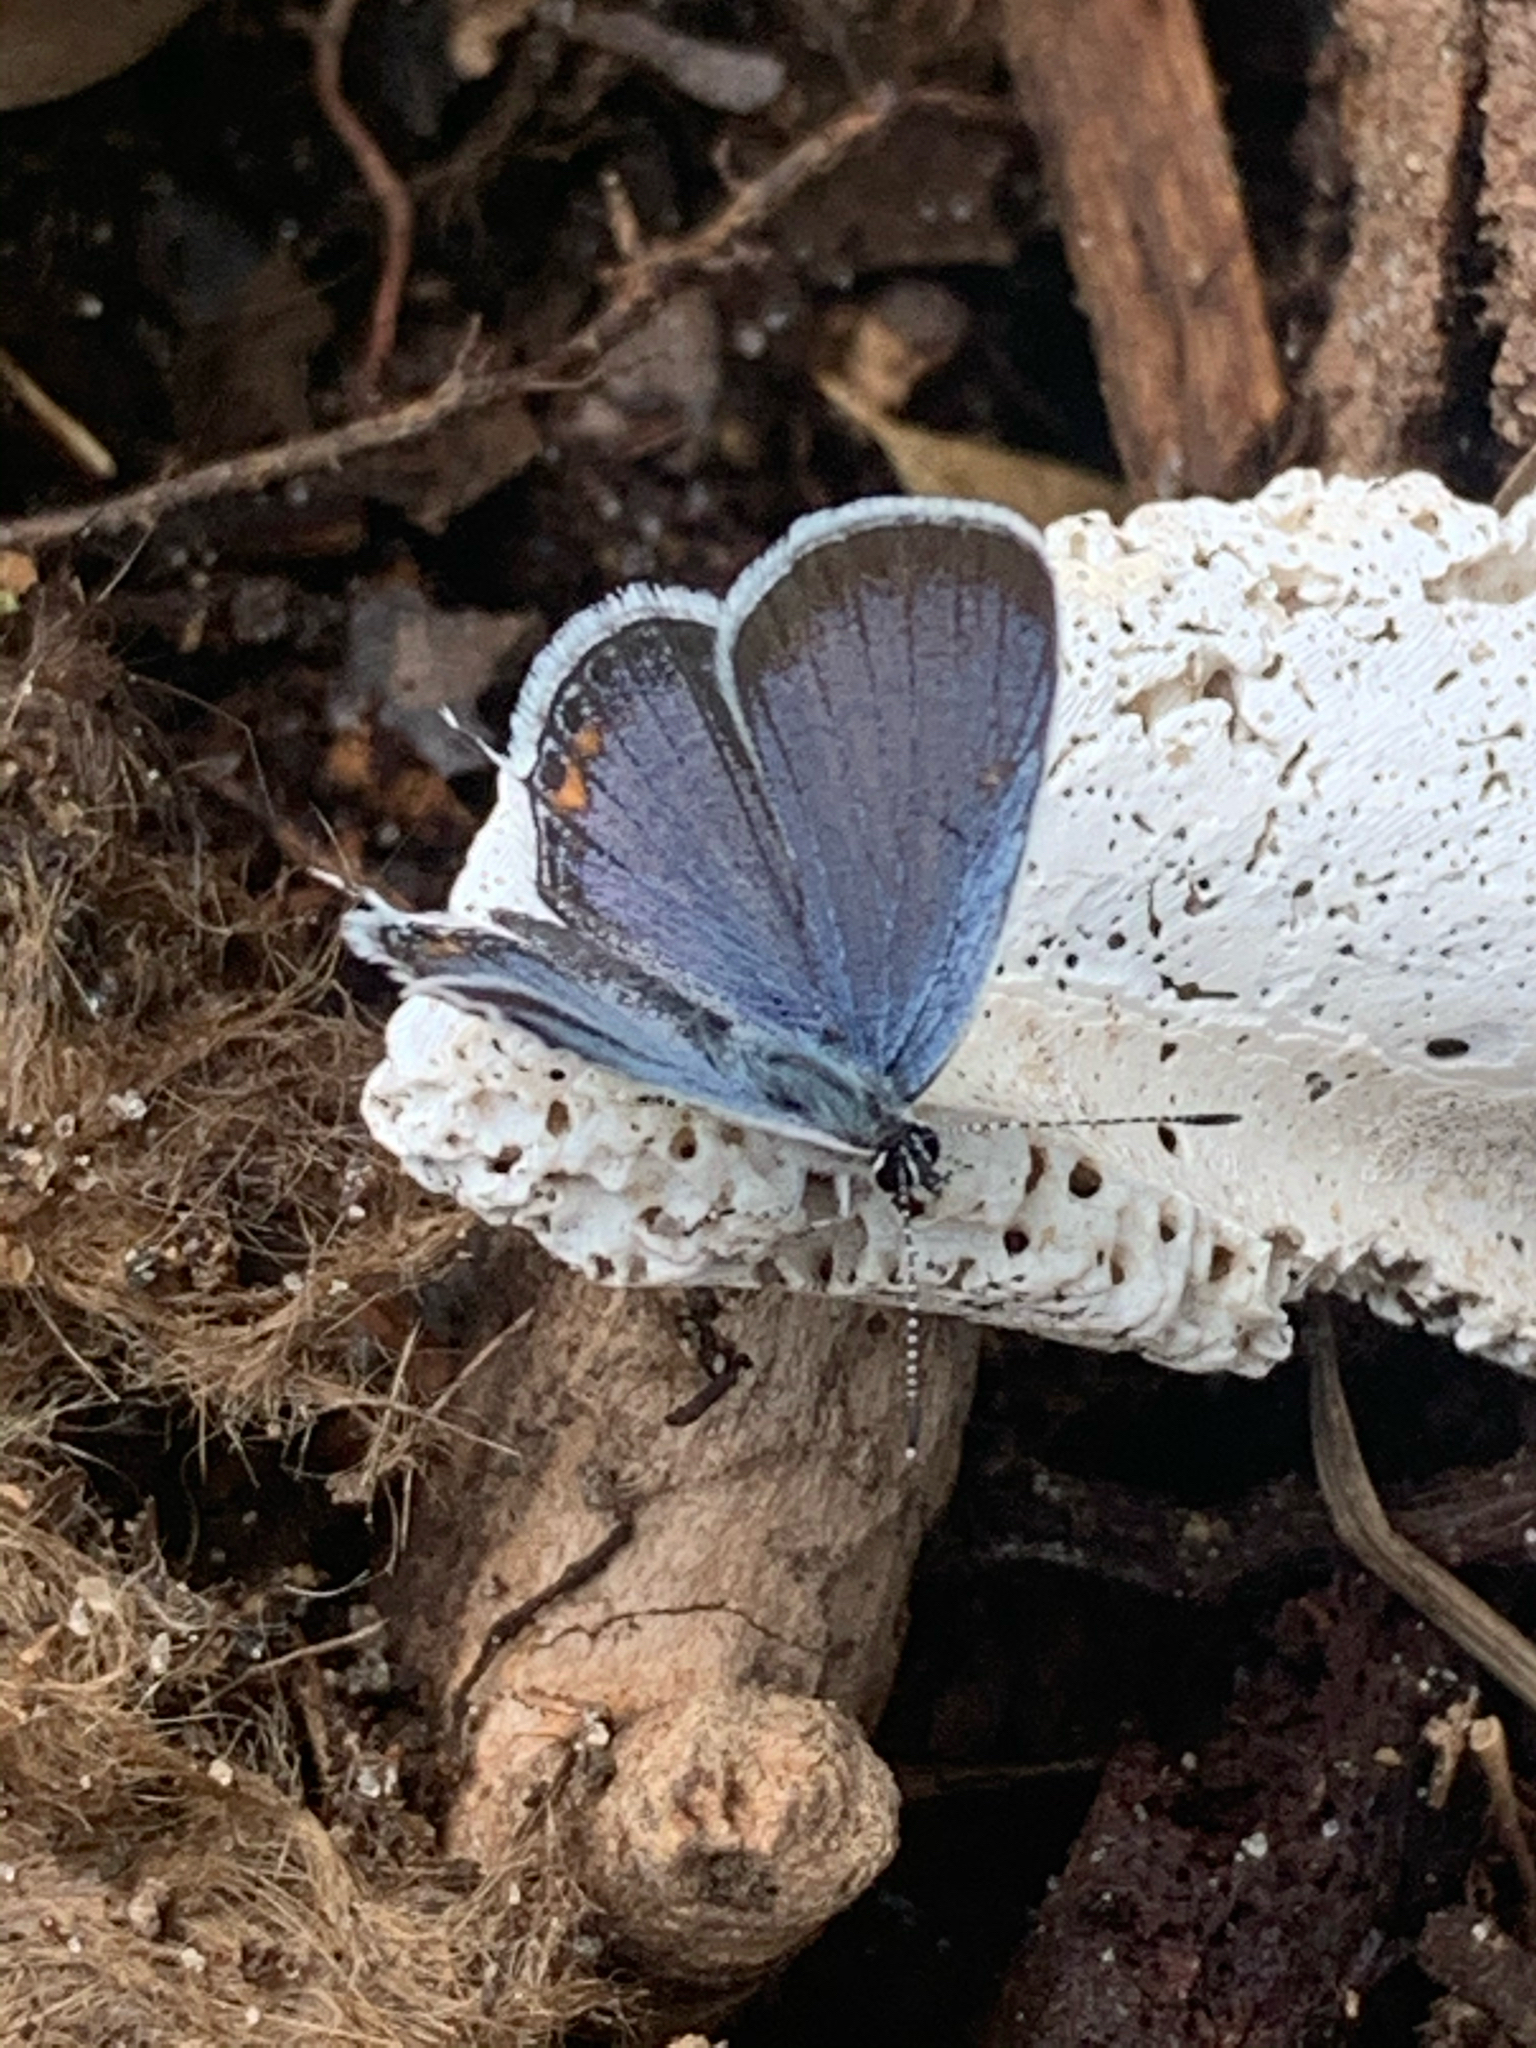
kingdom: Animalia
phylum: Arthropoda
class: Insecta
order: Lepidoptera
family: Lycaenidae
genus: Elkalyce
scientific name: Elkalyce comyntas
